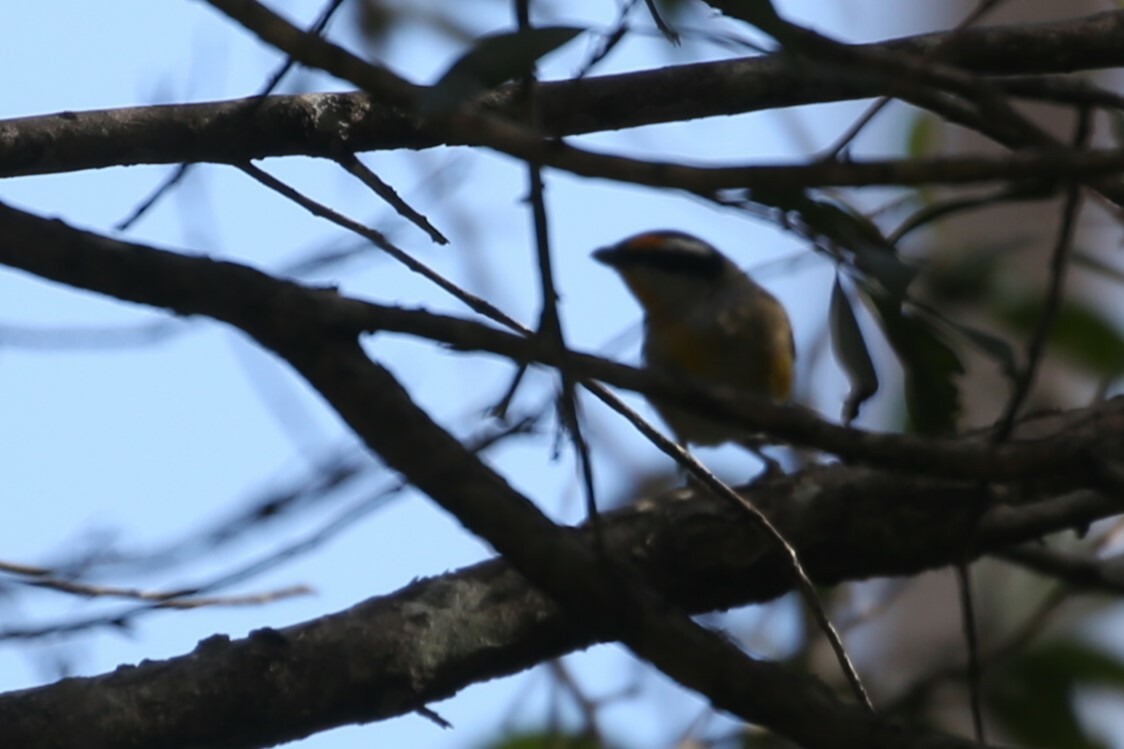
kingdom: Animalia
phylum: Chordata
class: Aves
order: Passeriformes
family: Pardalotidae
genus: Pardalotus
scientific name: Pardalotus striatus
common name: Striated pardalote
